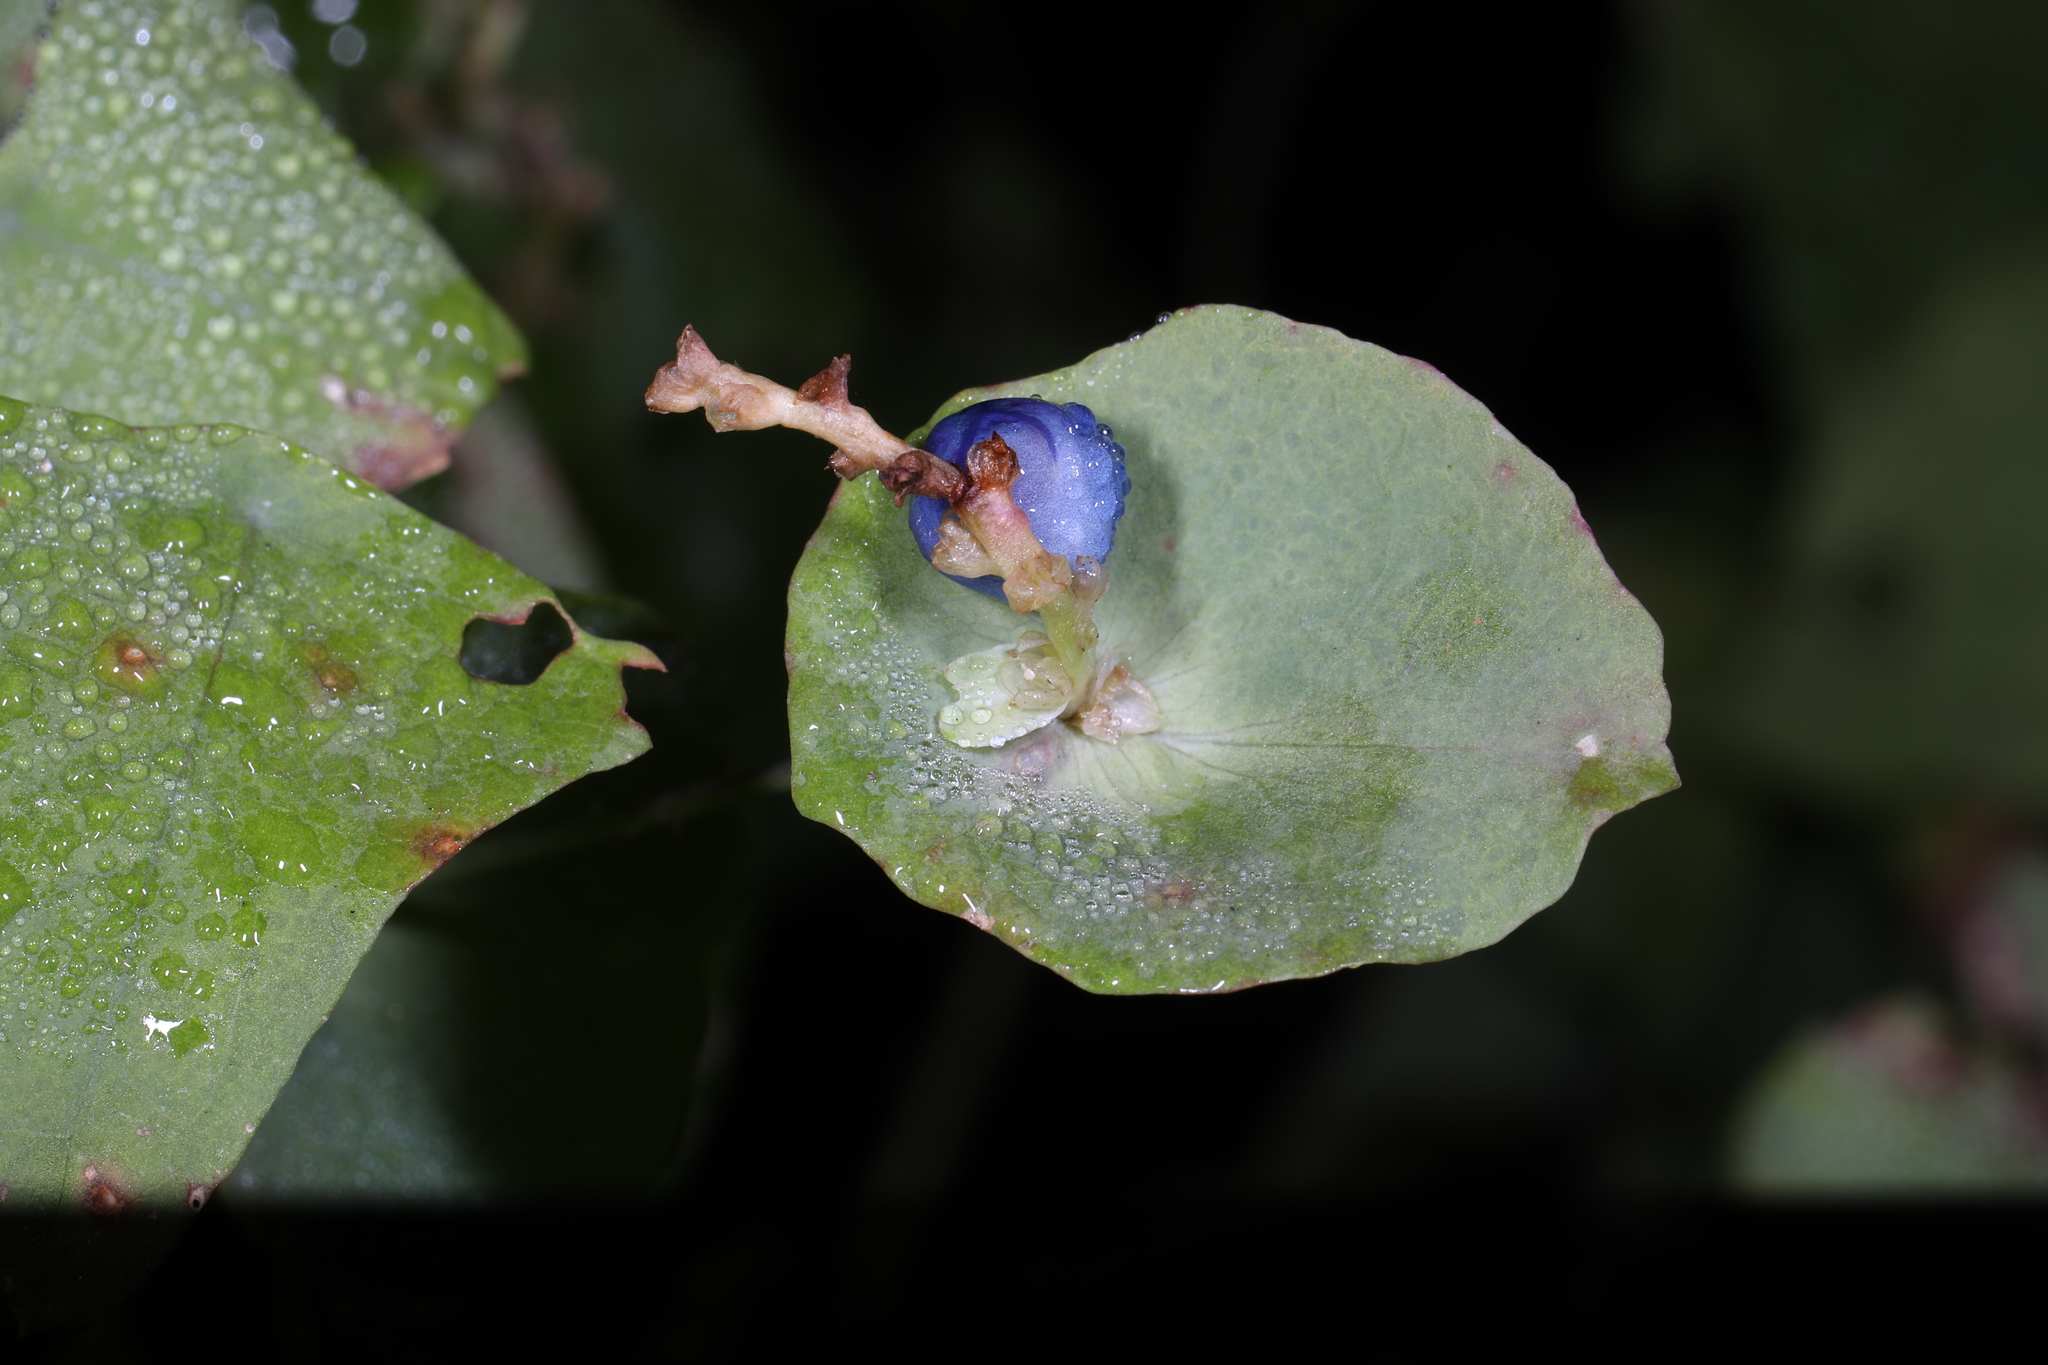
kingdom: Plantae
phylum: Tracheophyta
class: Magnoliopsida
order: Caryophyllales
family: Polygonaceae
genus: Persicaria
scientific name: Persicaria perfoliata
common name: Asiatic tearthumb
